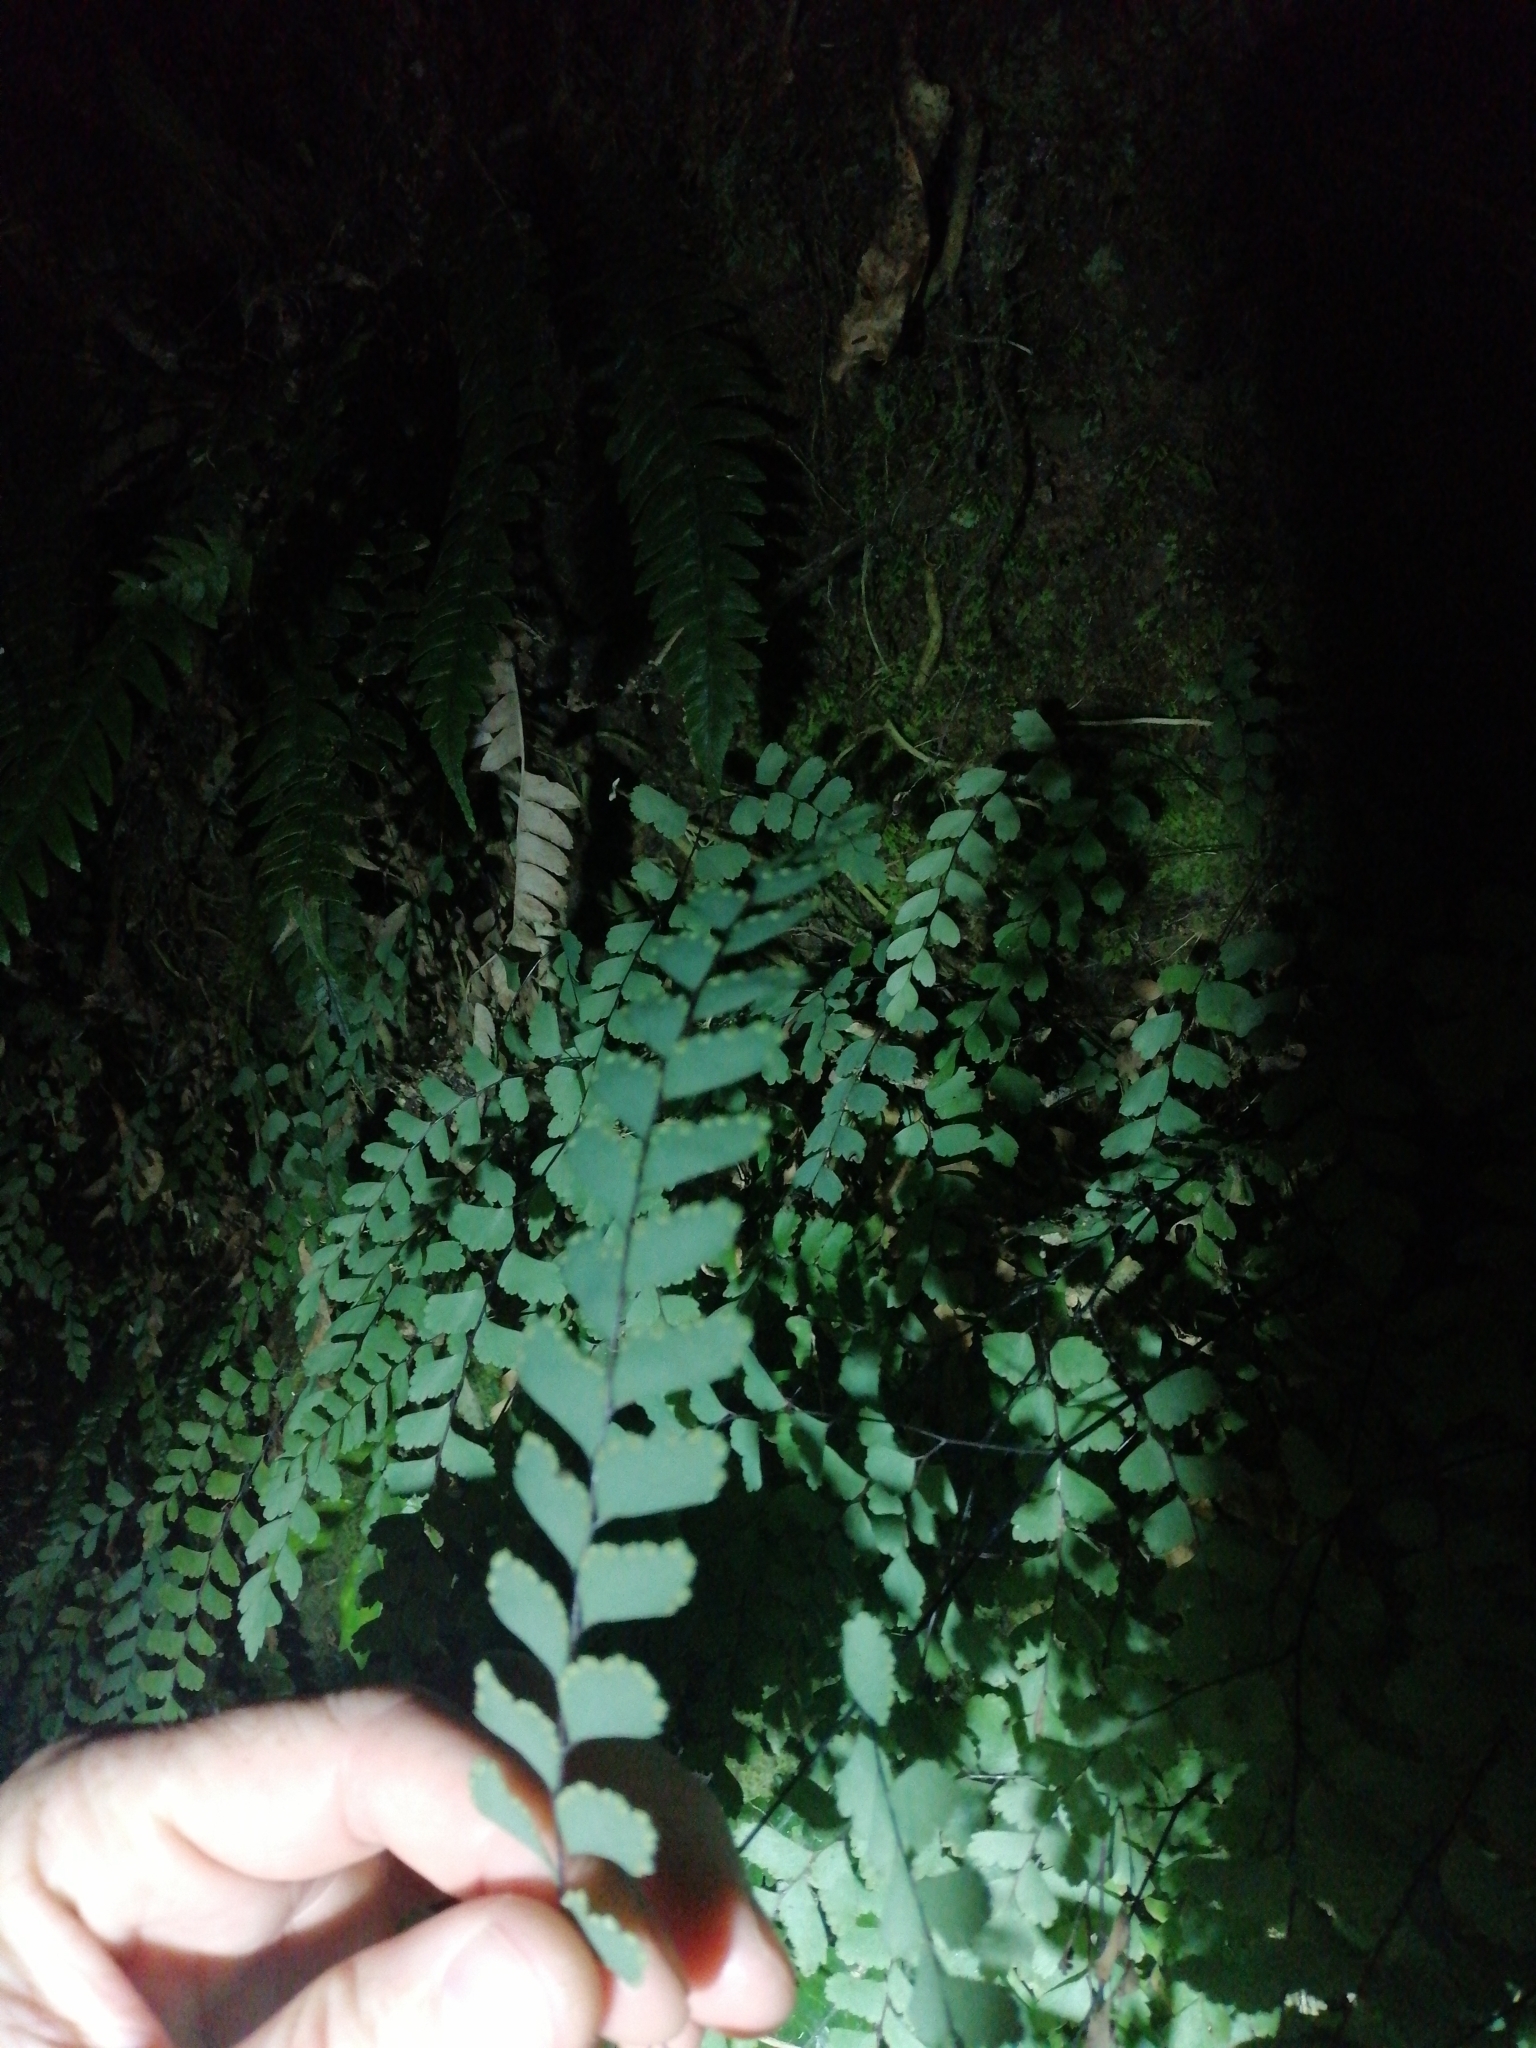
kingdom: Plantae
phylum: Tracheophyta
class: Polypodiopsida
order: Polypodiales
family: Pteridaceae
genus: Adiantum
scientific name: Adiantum cunninghamii
